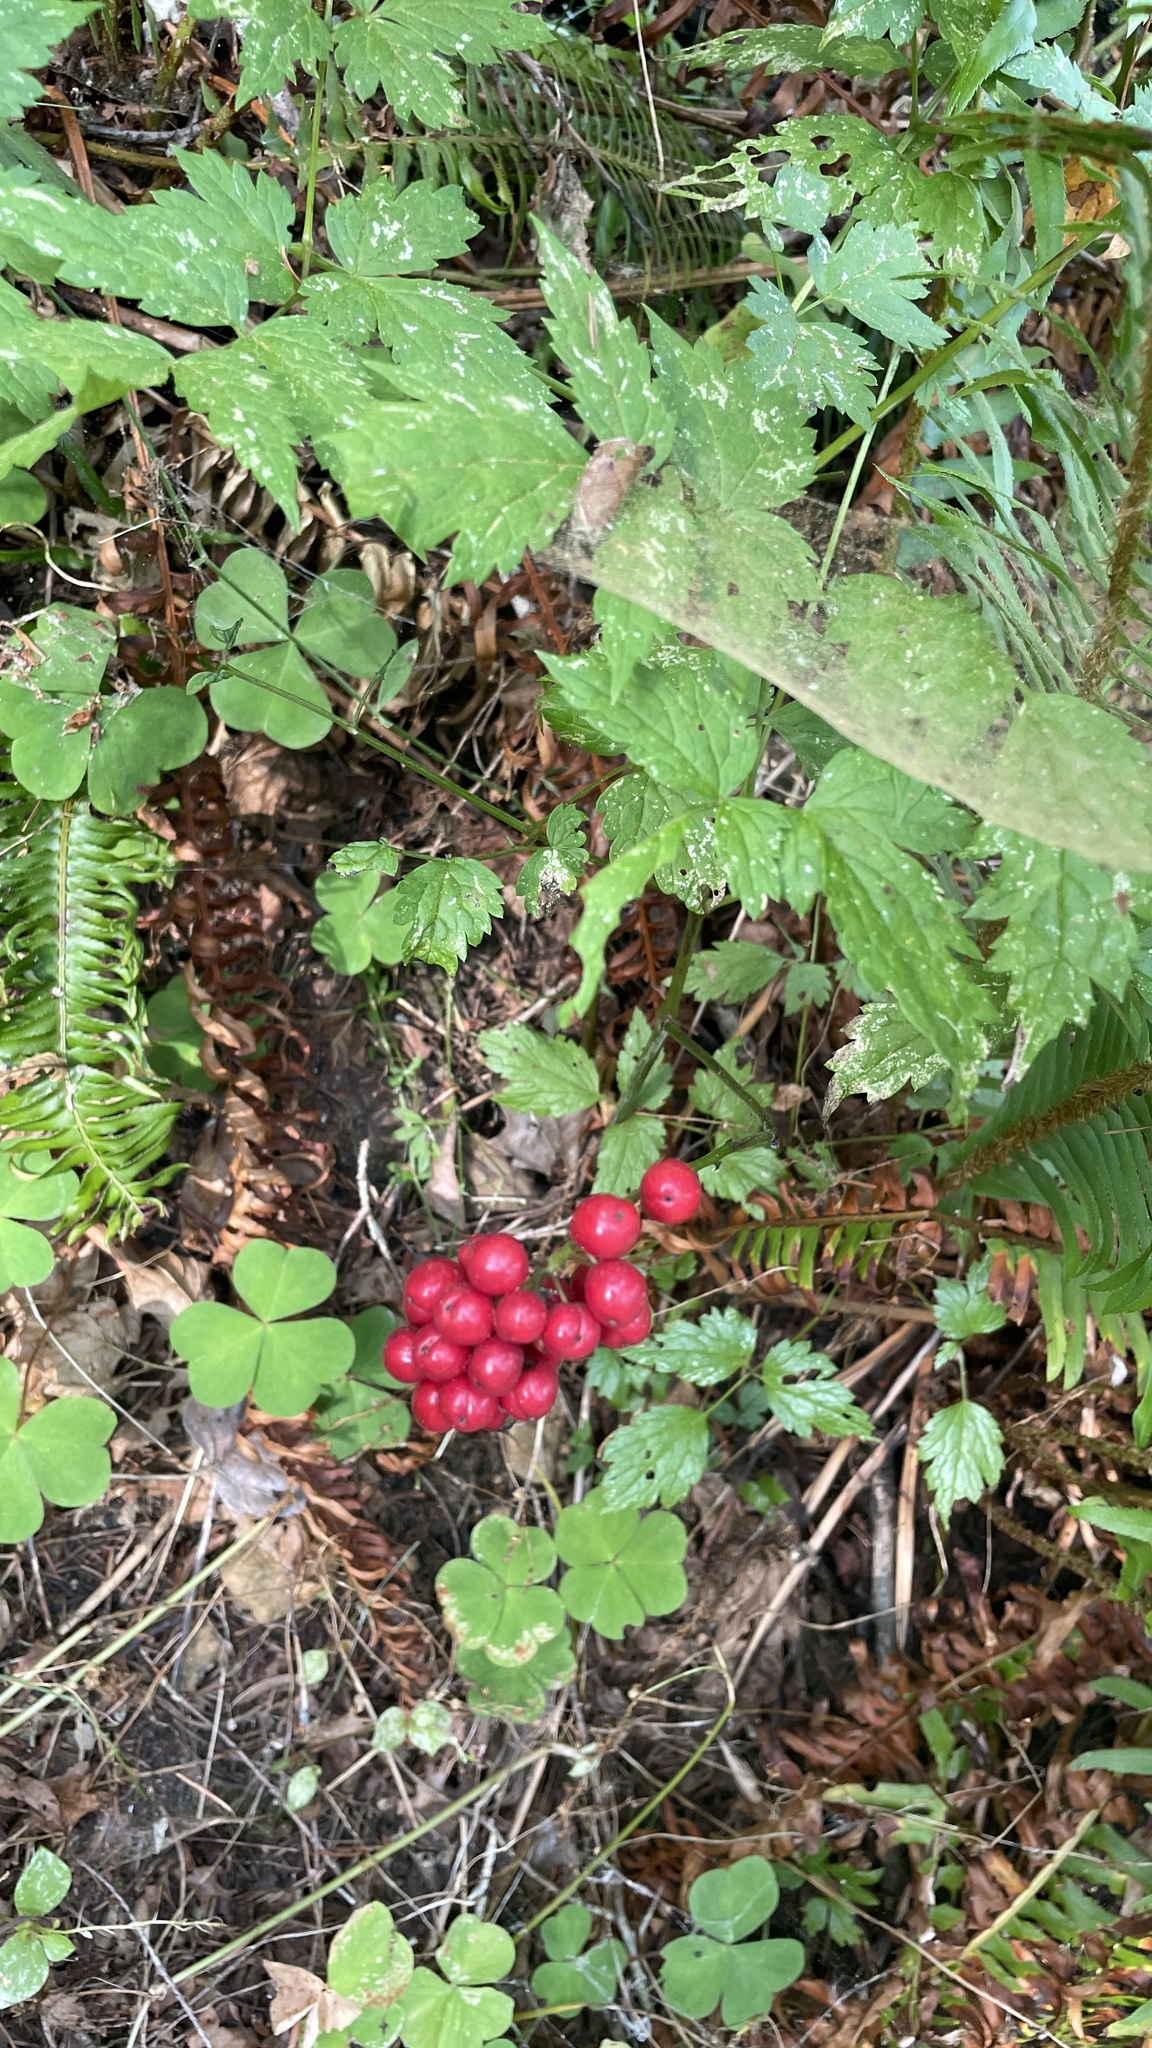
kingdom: Plantae
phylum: Tracheophyta
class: Magnoliopsida
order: Ranunculales
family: Ranunculaceae
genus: Actaea
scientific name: Actaea rubra
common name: Red baneberry
